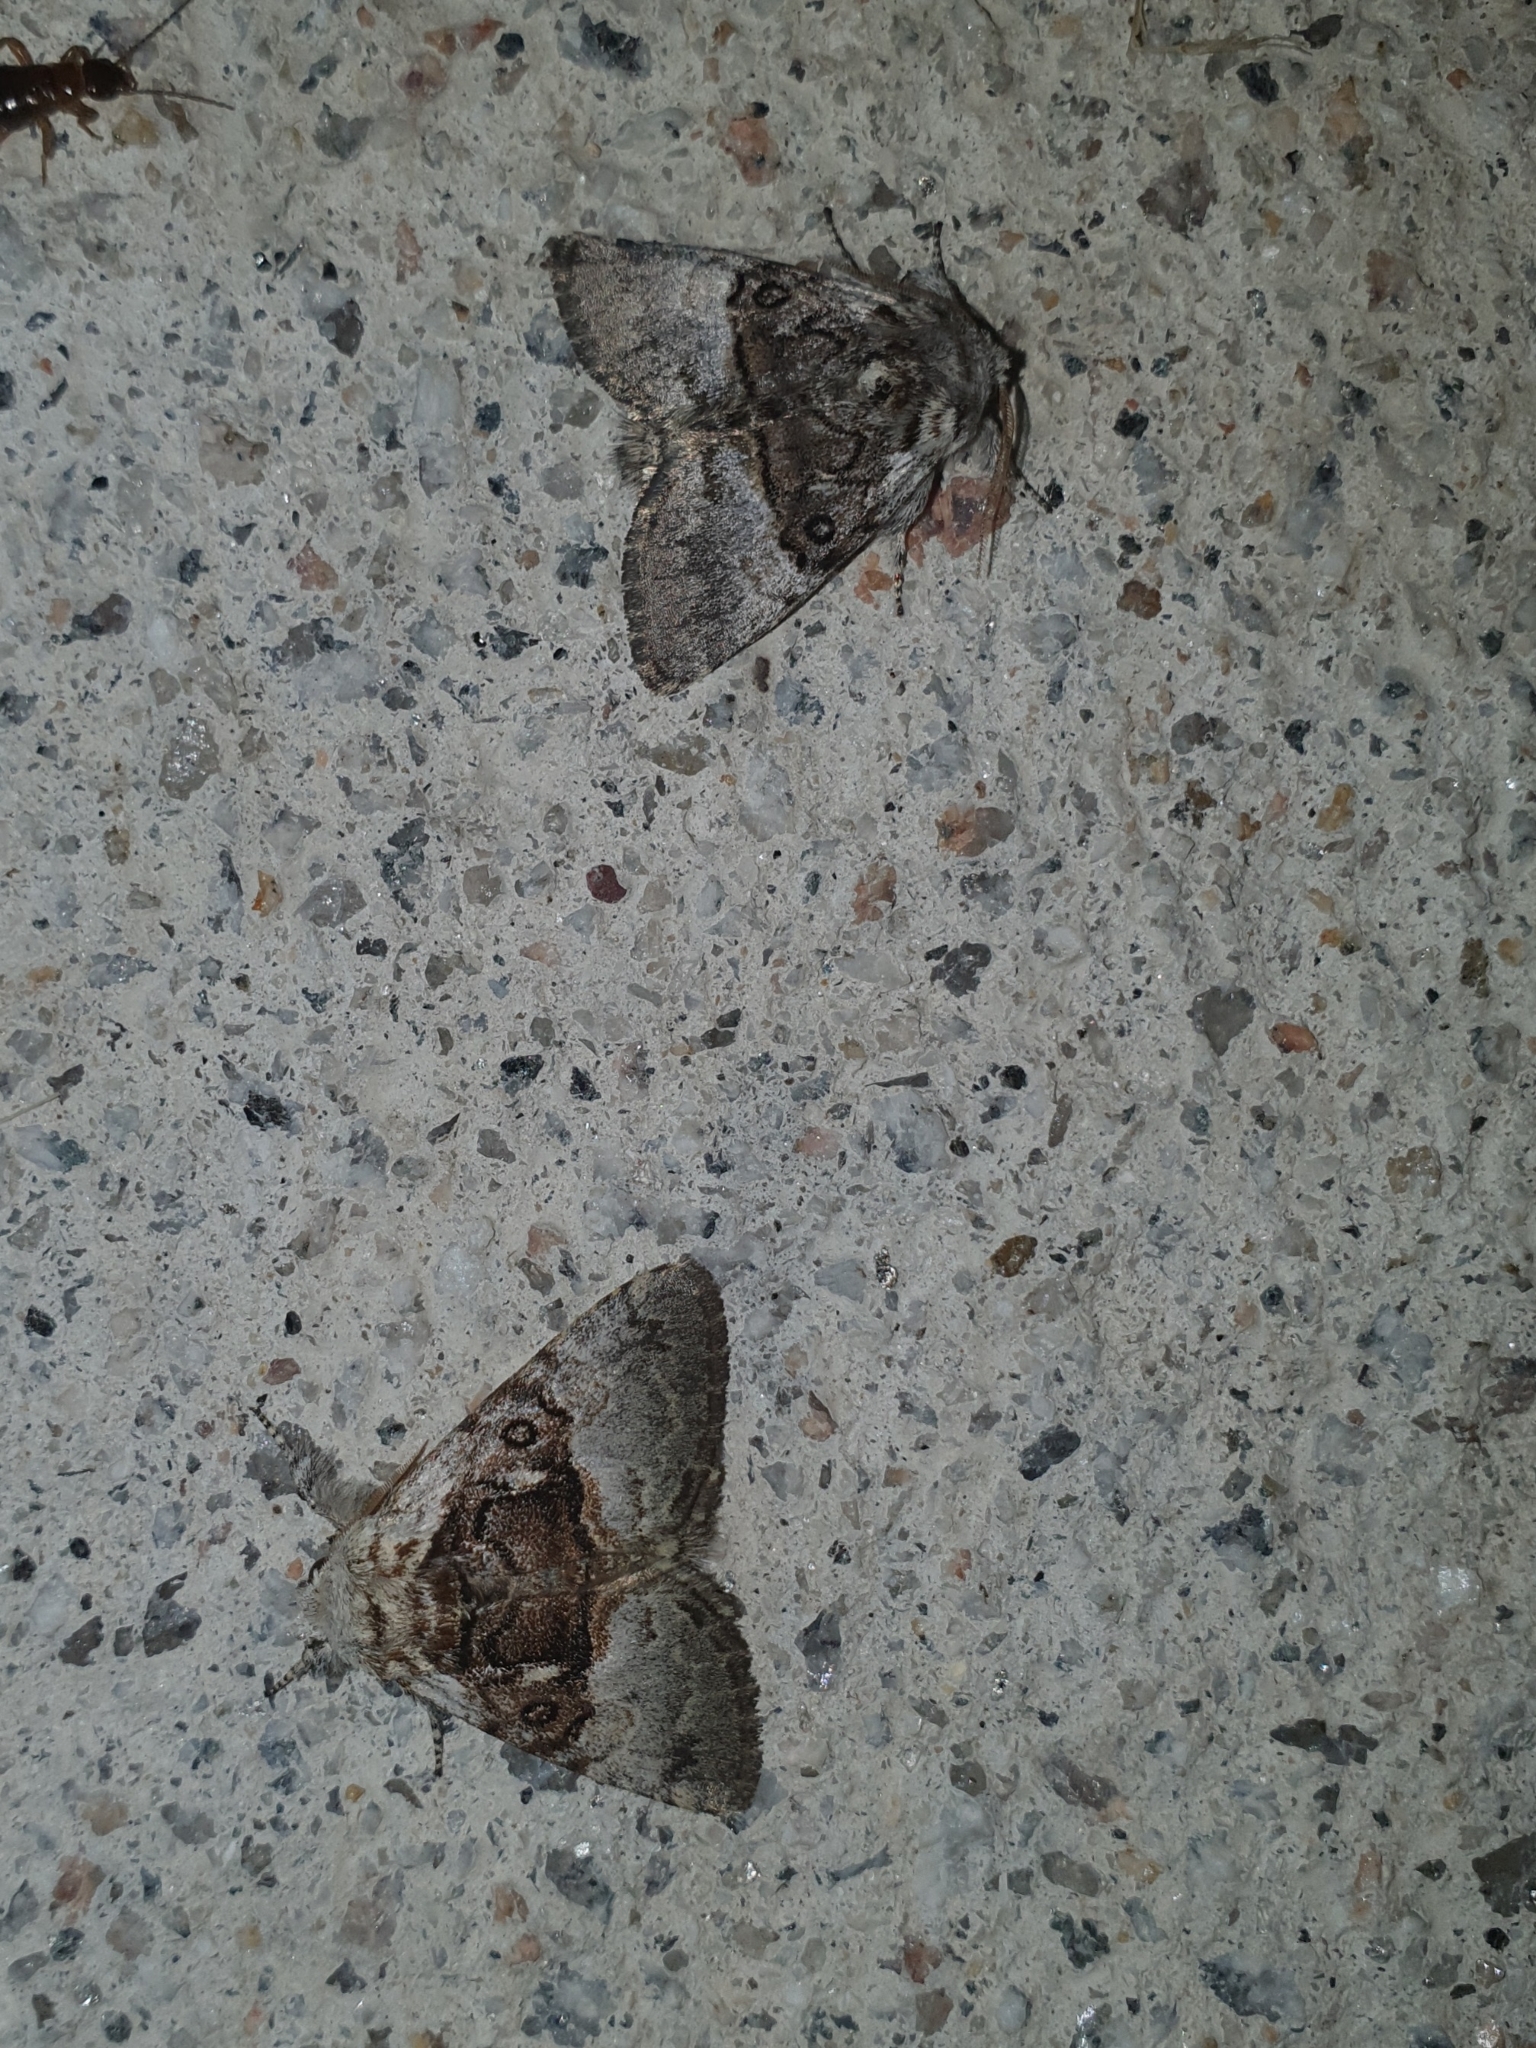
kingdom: Animalia
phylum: Arthropoda
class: Insecta
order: Lepidoptera
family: Noctuidae
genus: Colocasia
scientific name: Colocasia coryli
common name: Nut-tree tussock
